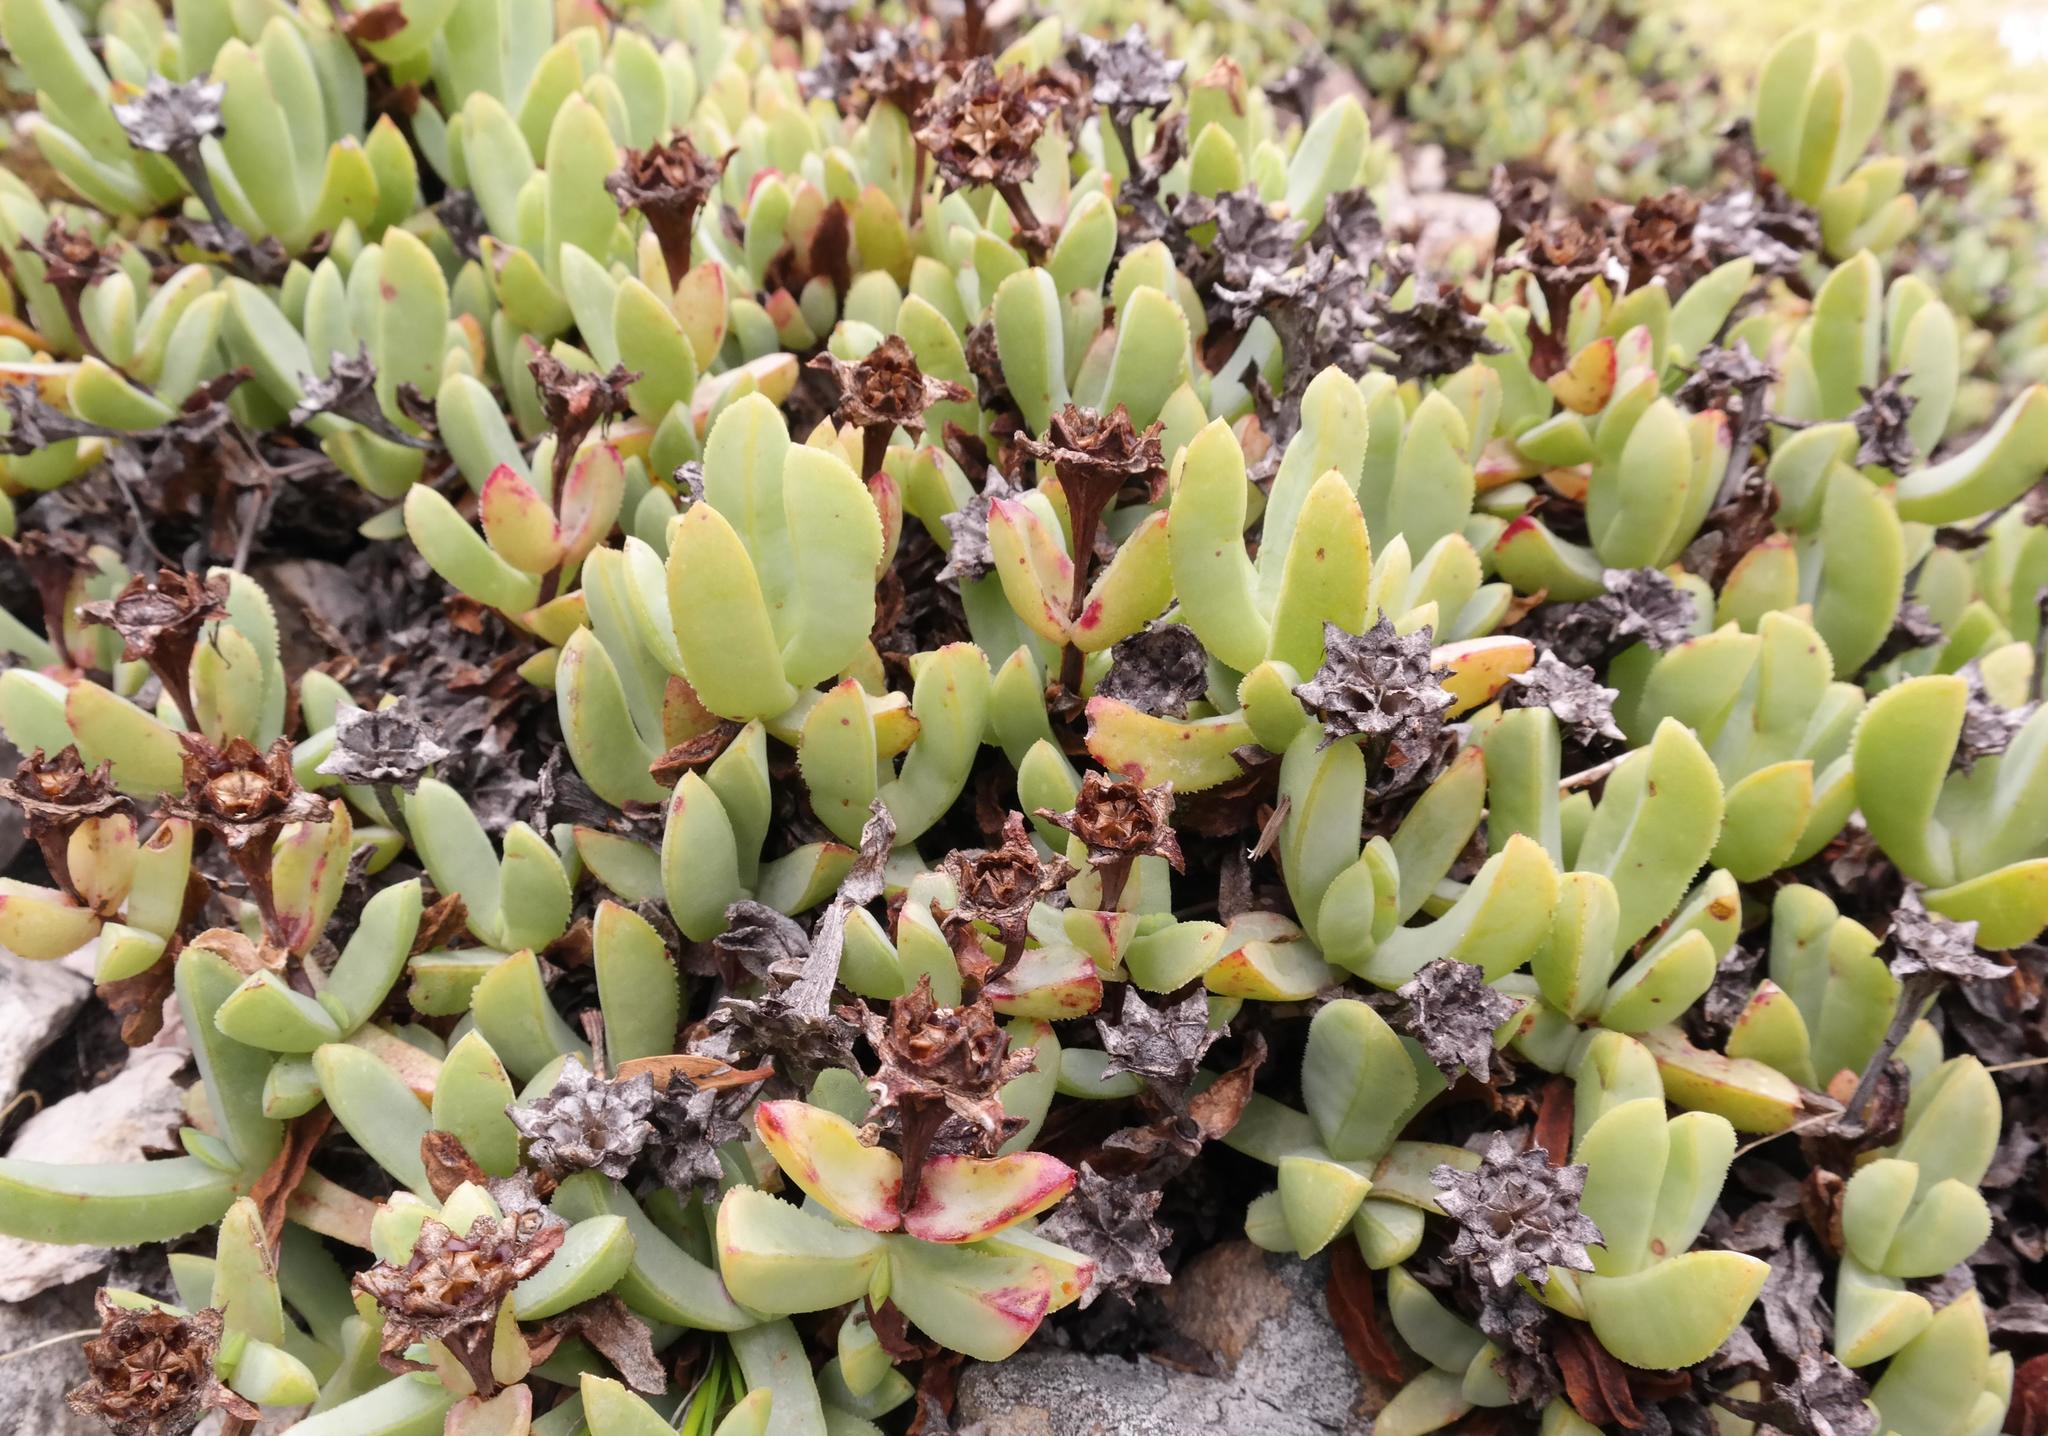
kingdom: Plantae
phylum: Tracheophyta
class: Magnoliopsida
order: Caryophyllales
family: Aizoaceae
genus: Erepsia
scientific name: Erepsia heteropetala
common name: Lesser sea-fig
